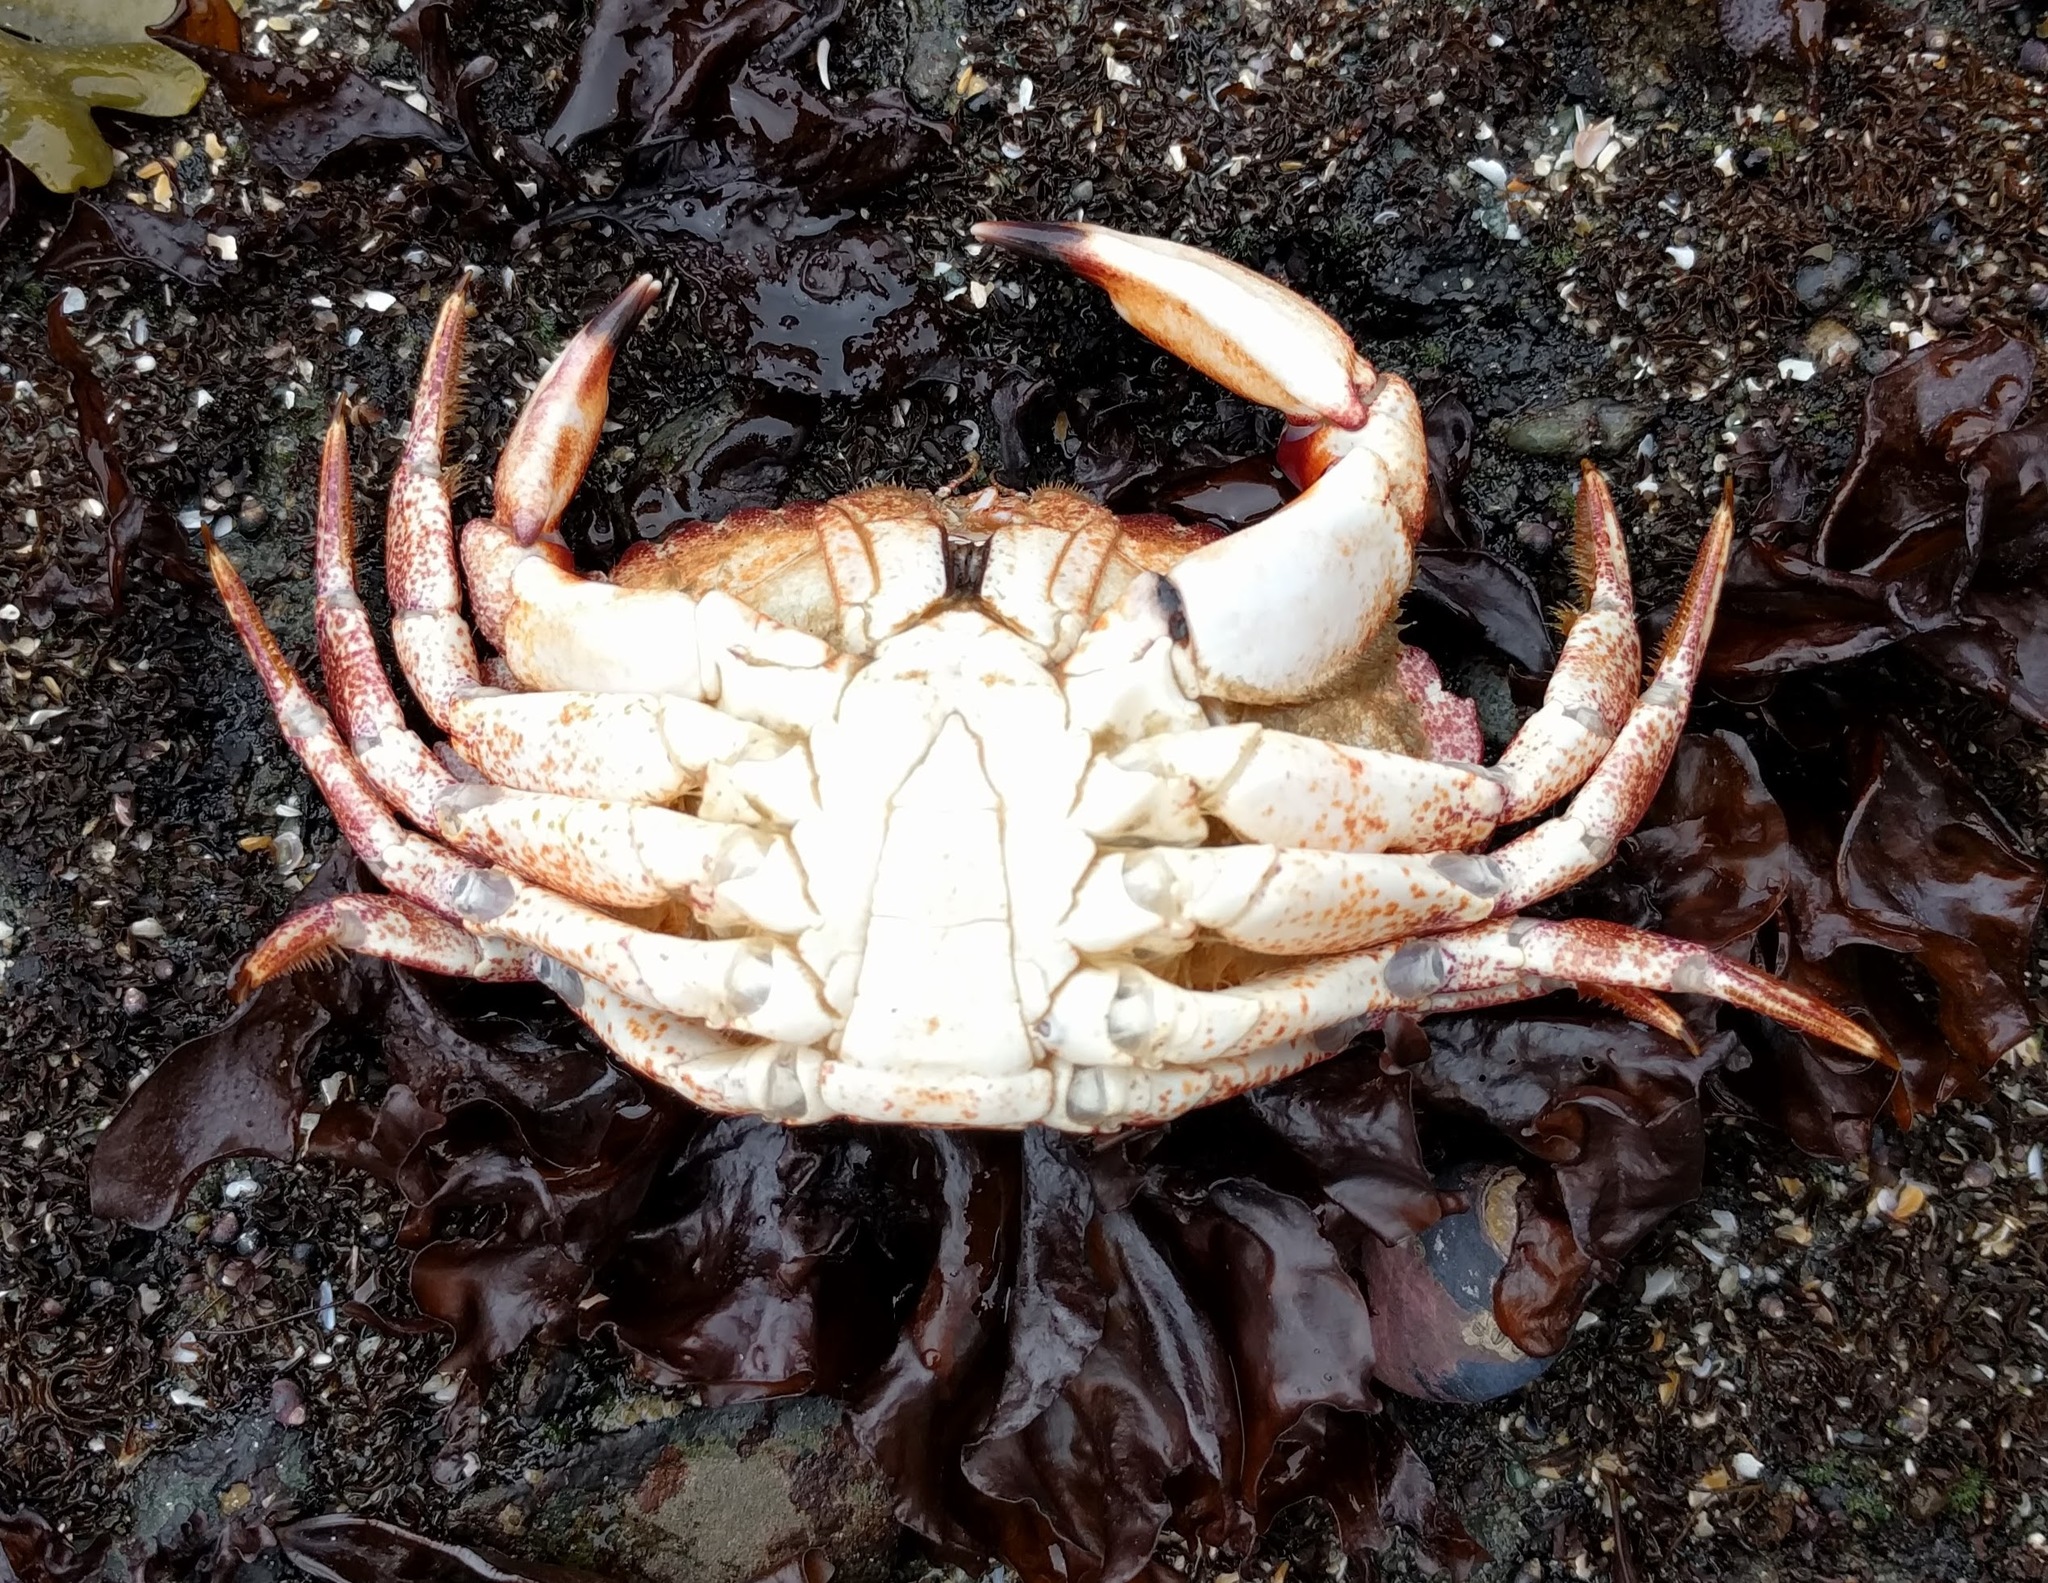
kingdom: Animalia
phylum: Arthropoda
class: Malacostraca
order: Decapoda
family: Cancridae
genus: Cancer
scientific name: Cancer productus
